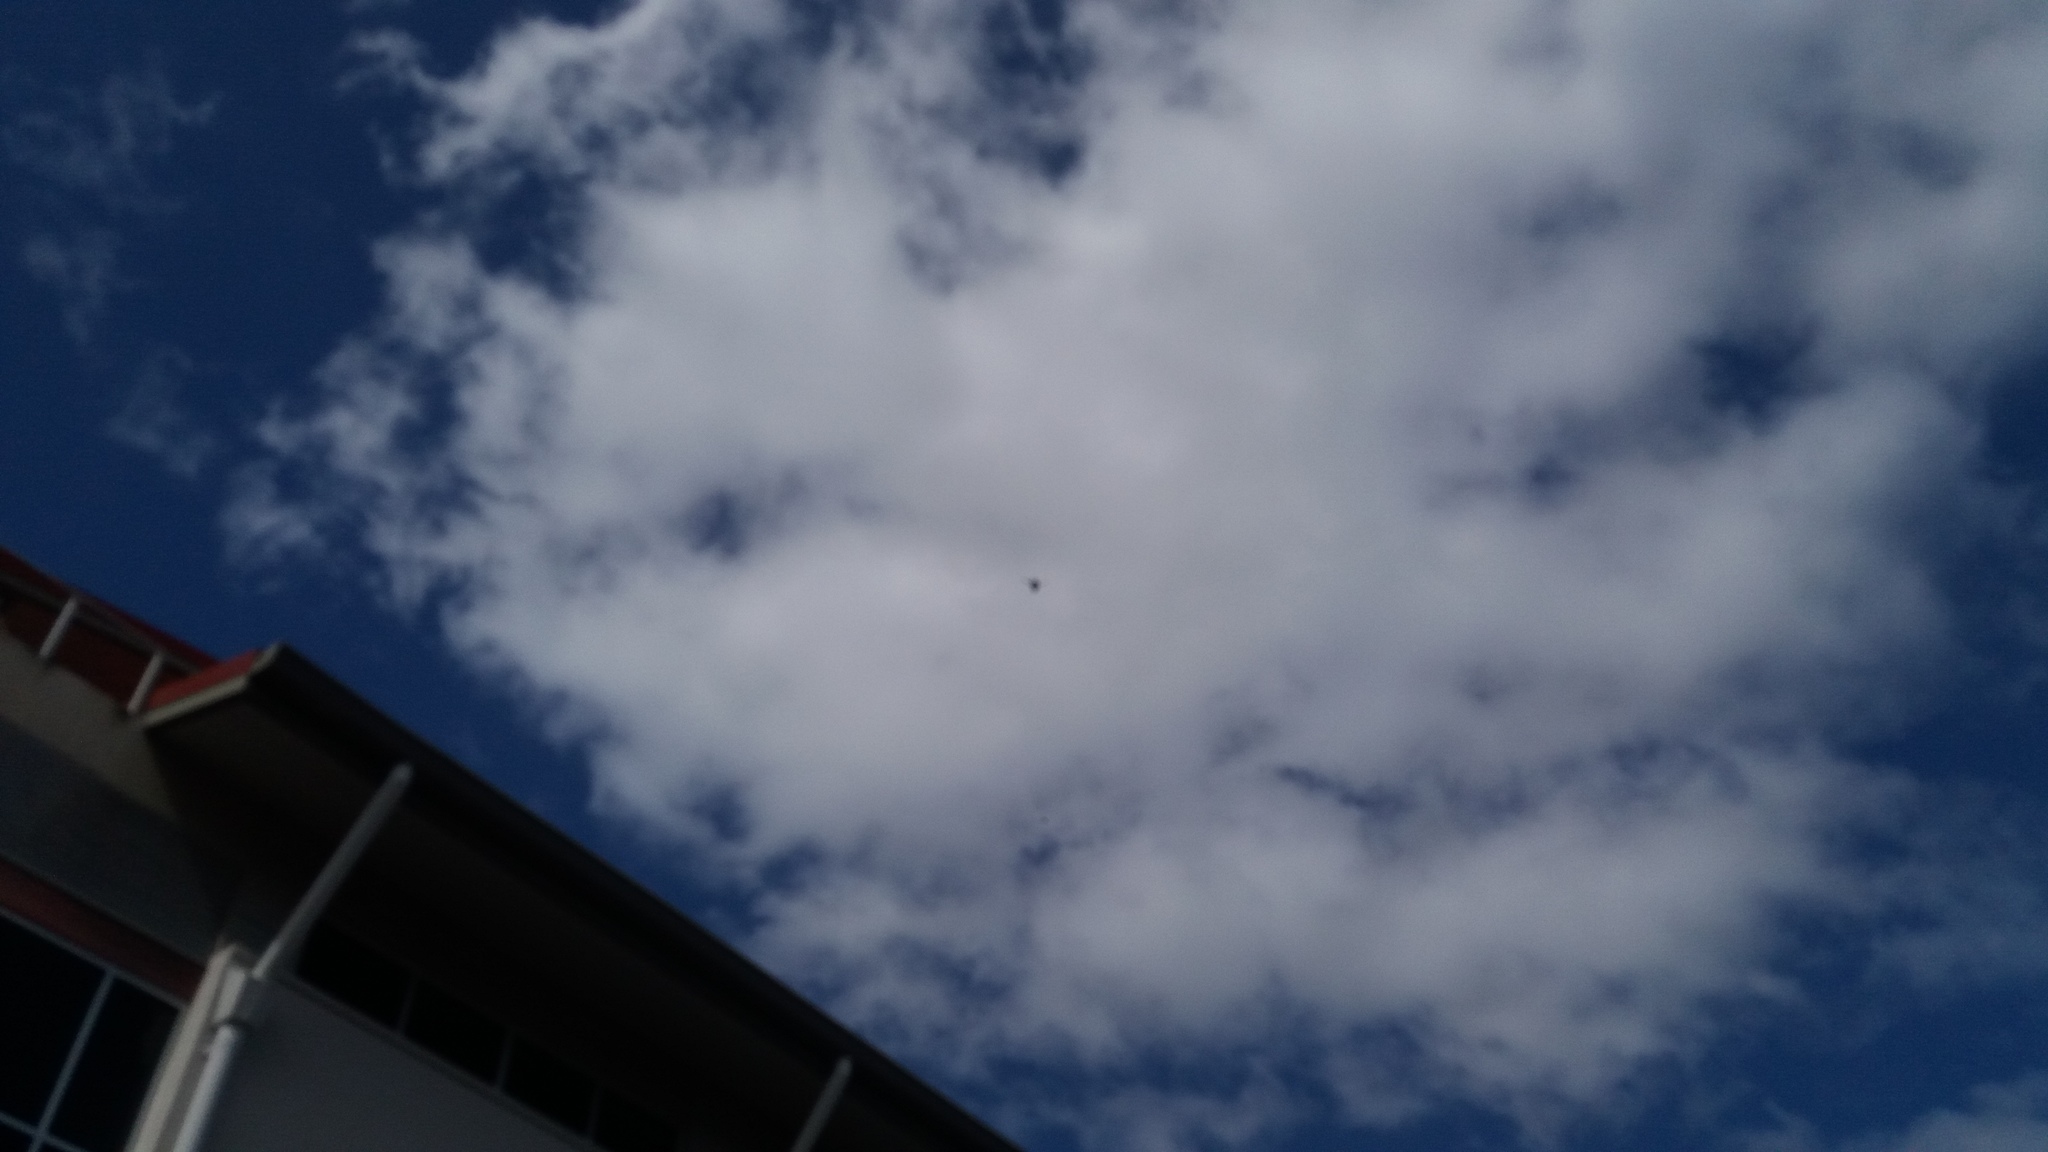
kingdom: Animalia
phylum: Chordata
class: Aves
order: Accipitriformes
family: Accipitridae
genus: Buteo
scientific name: Buteo solitarius
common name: Hawaiian hawk
